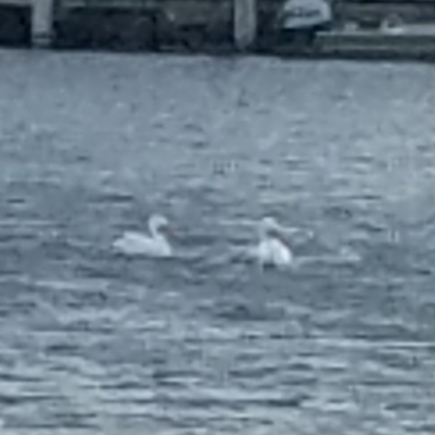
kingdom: Animalia
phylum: Chordata
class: Aves
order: Pelecaniformes
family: Pelecanidae
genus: Pelecanus
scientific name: Pelecanus erythrorhynchos
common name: American white pelican
